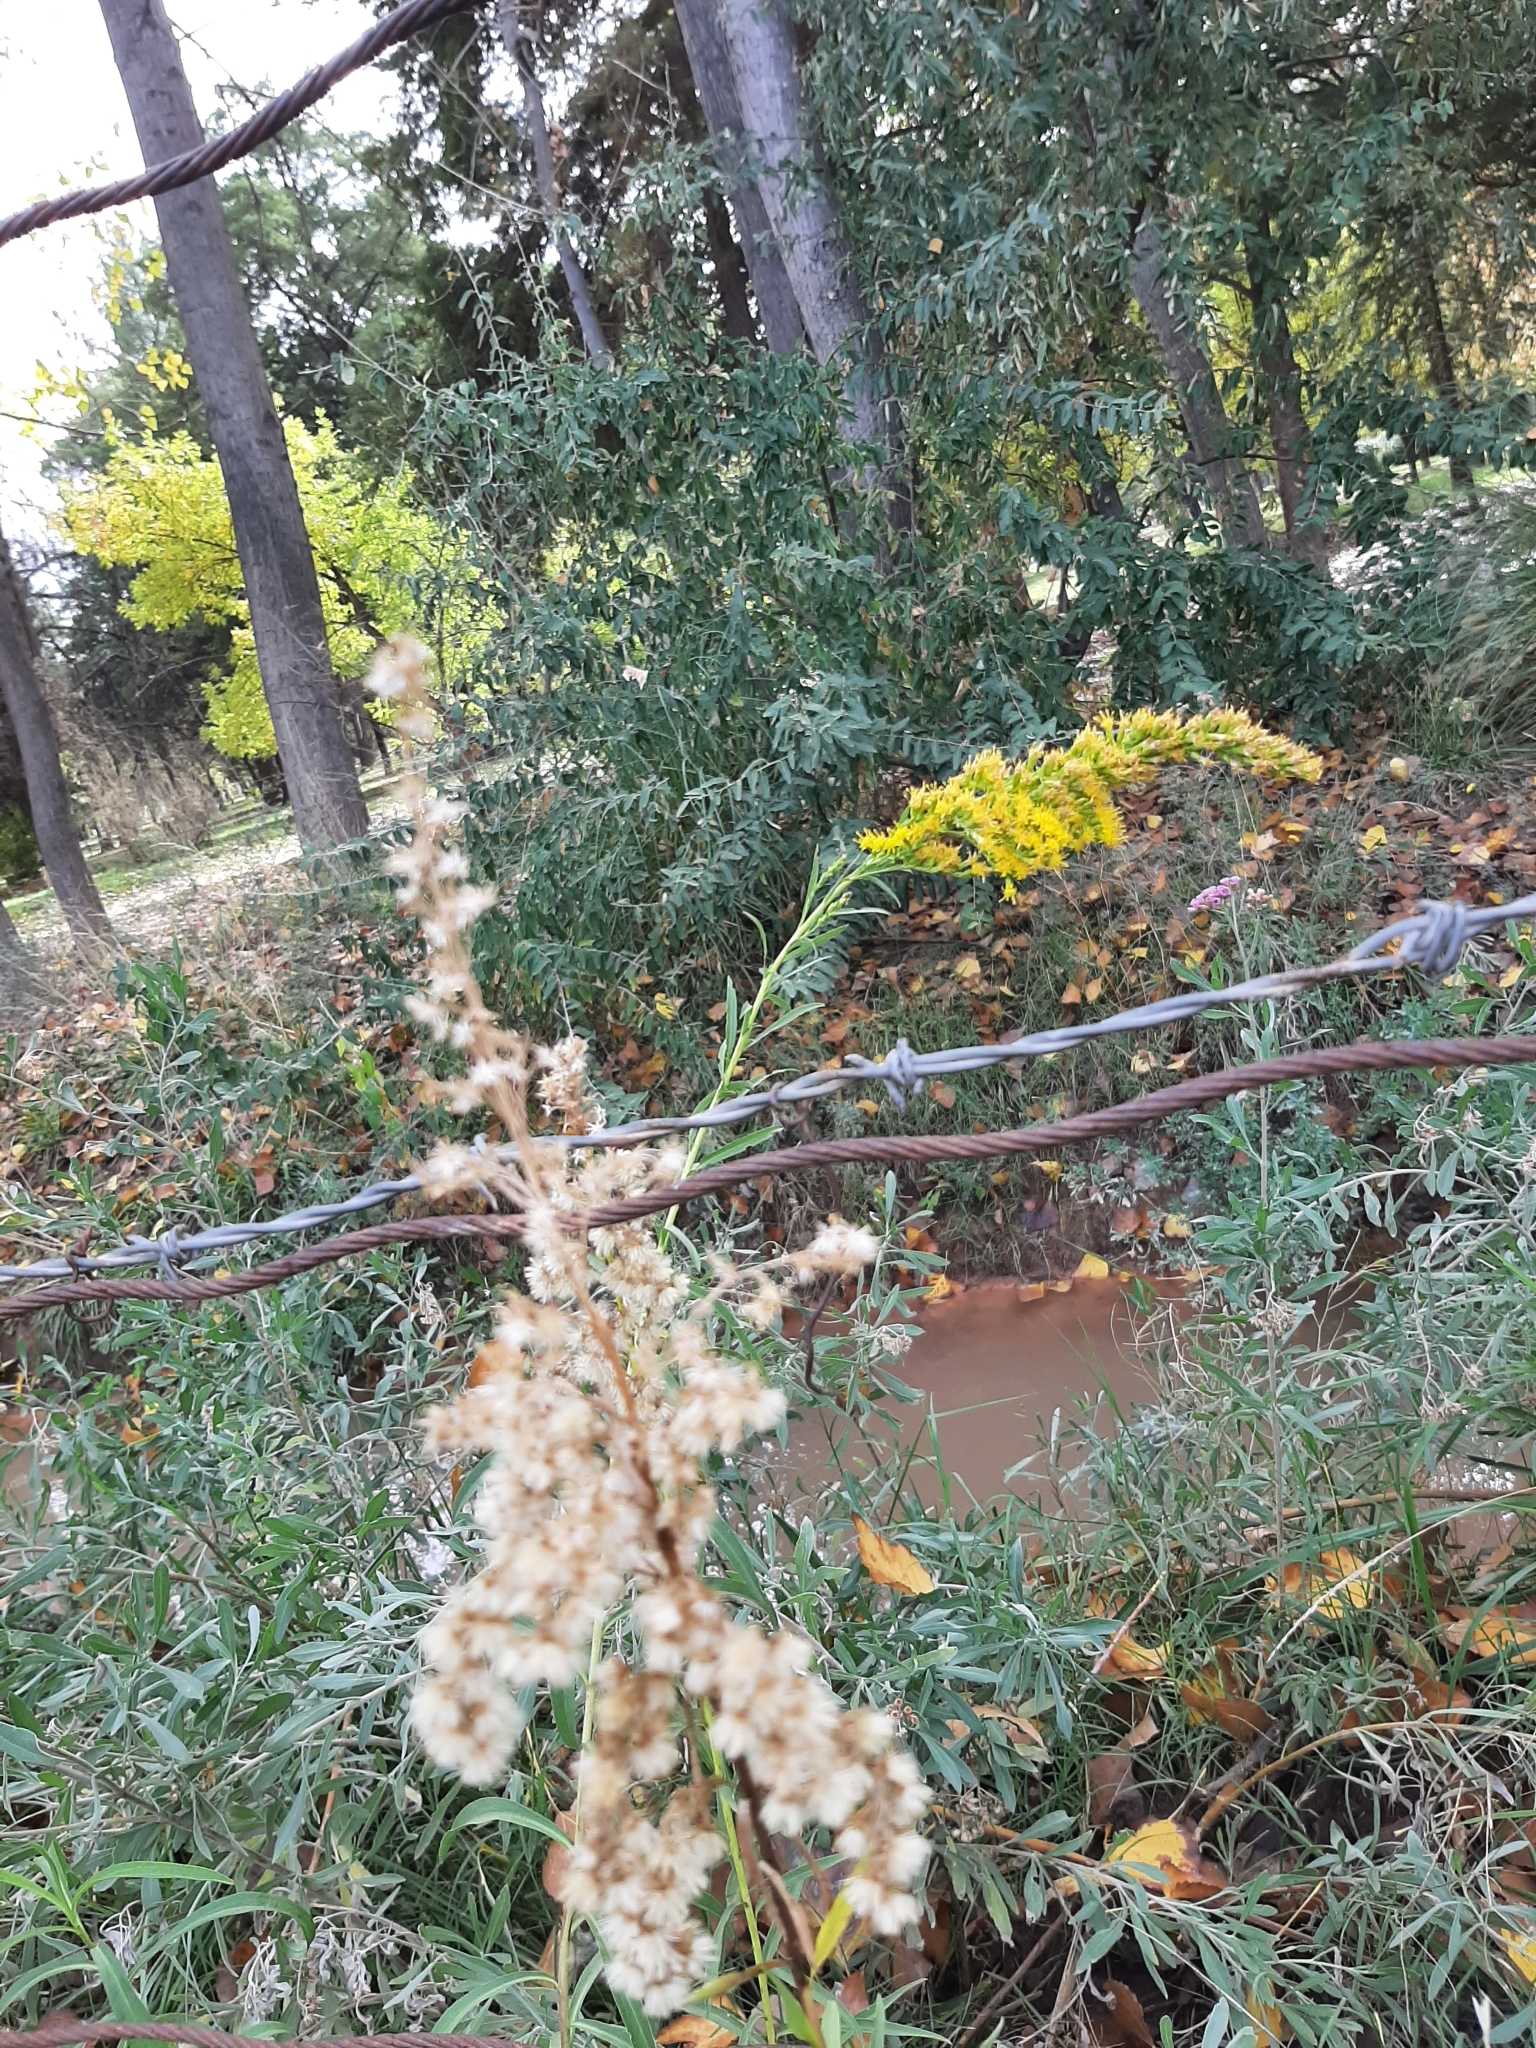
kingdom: Plantae
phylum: Tracheophyta
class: Magnoliopsida
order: Asterales
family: Asteraceae
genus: Solidago
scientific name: Solidago chilensis
